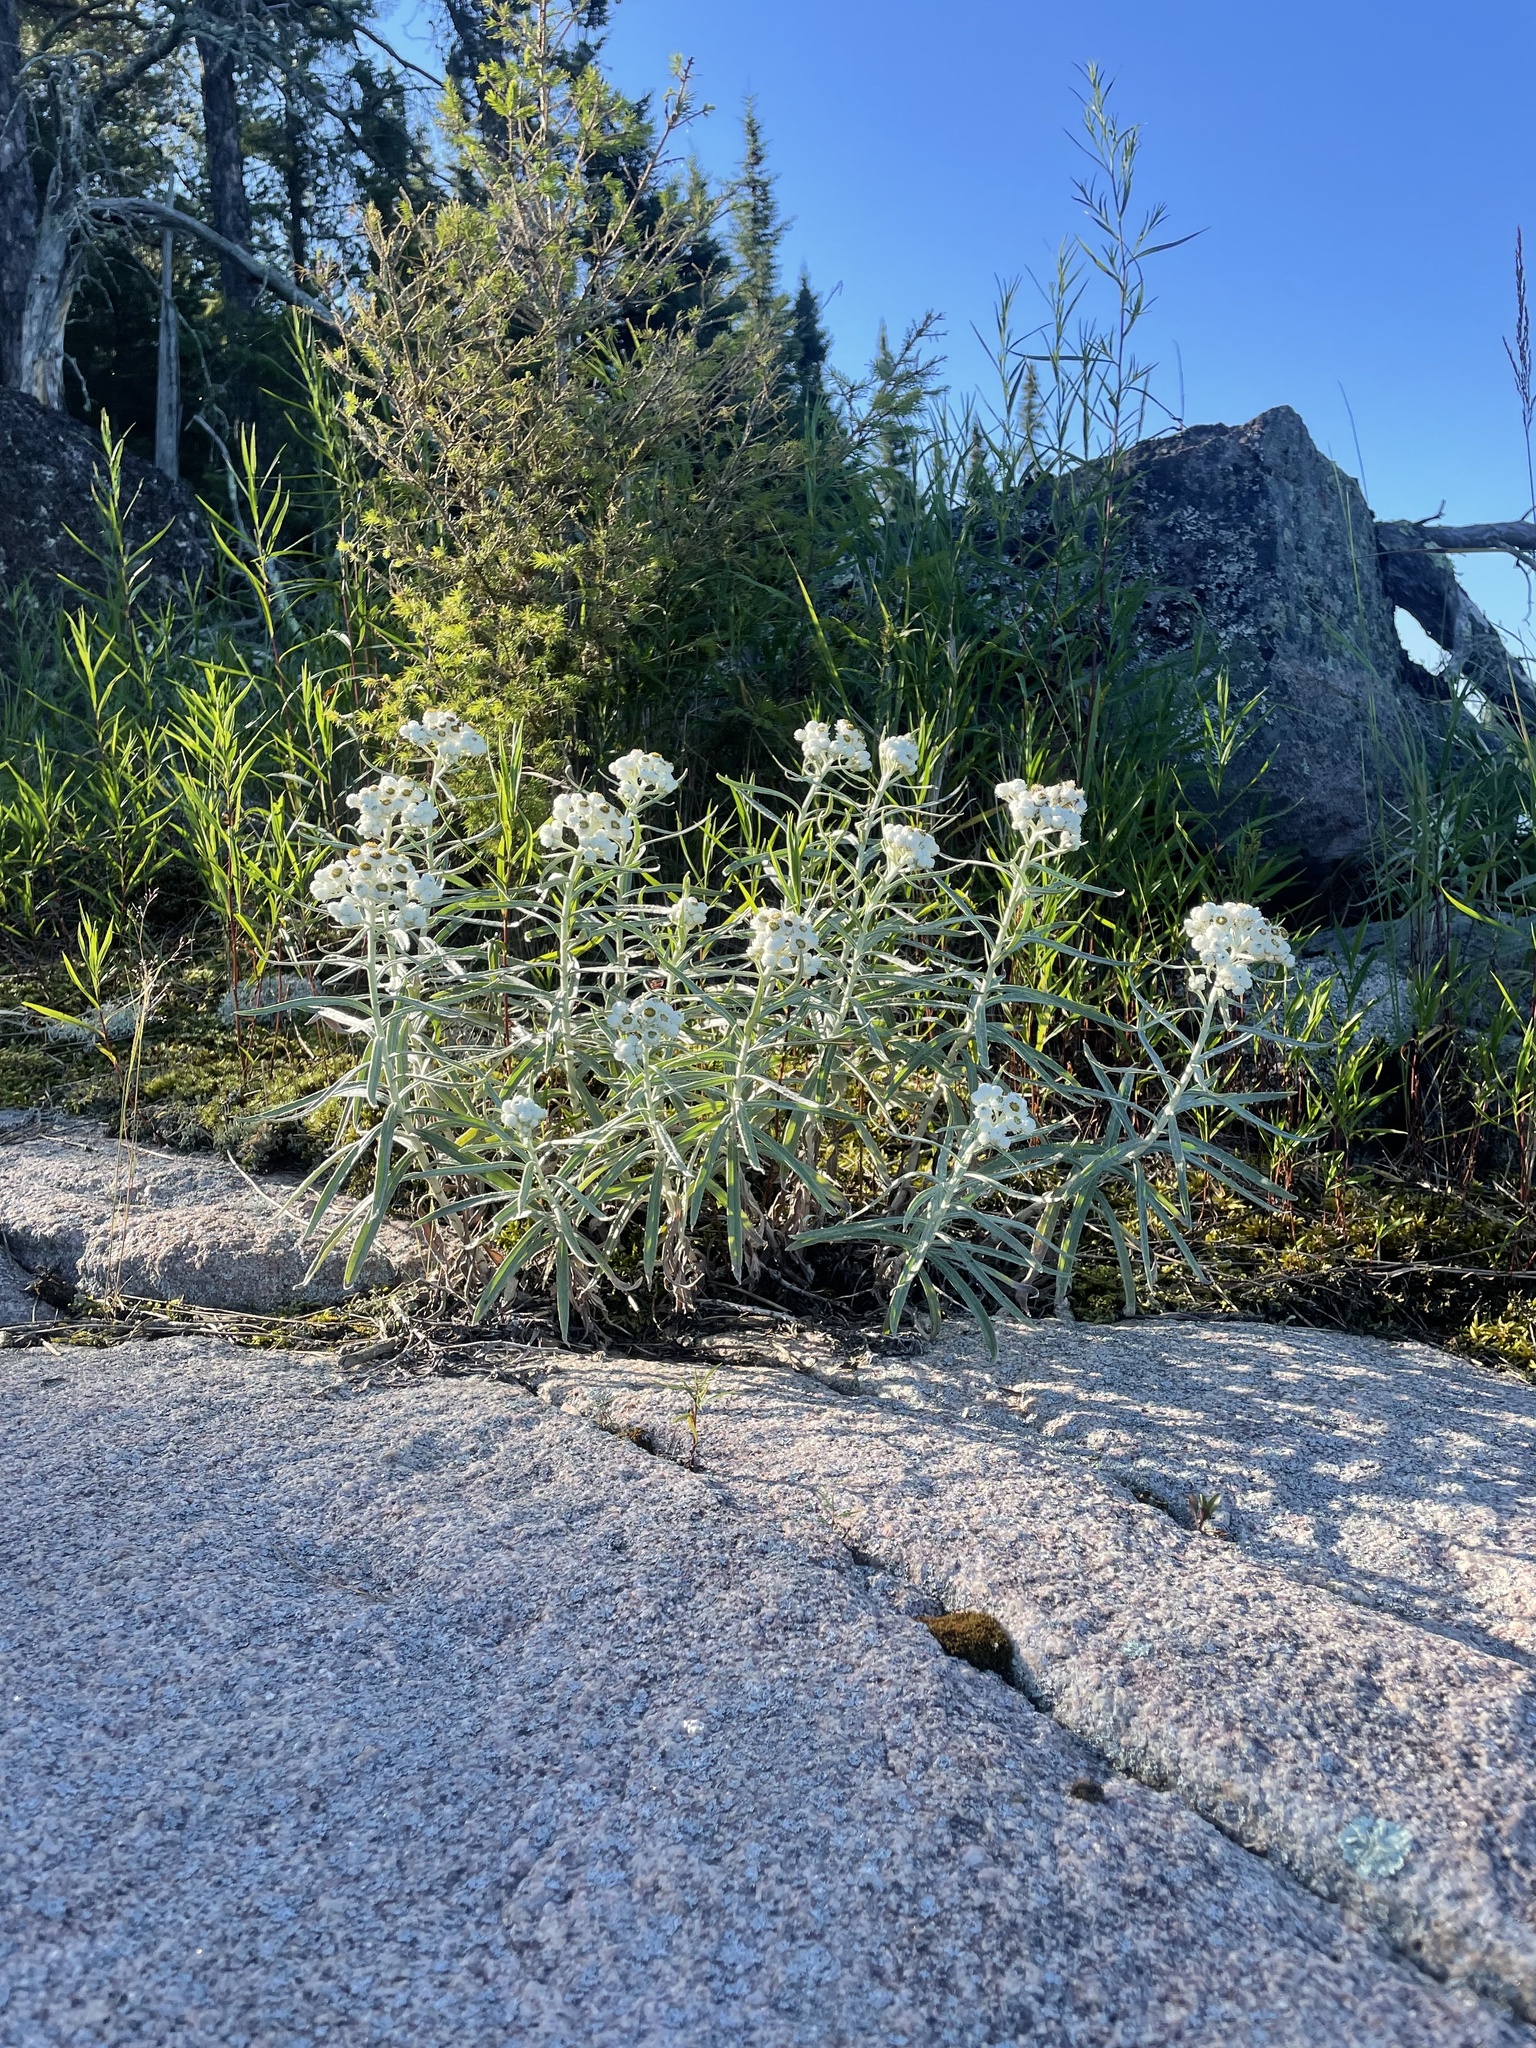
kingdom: Plantae
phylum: Tracheophyta
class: Magnoliopsida
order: Asterales
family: Asteraceae
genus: Anaphalis
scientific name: Anaphalis margaritacea
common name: Pearly everlasting
